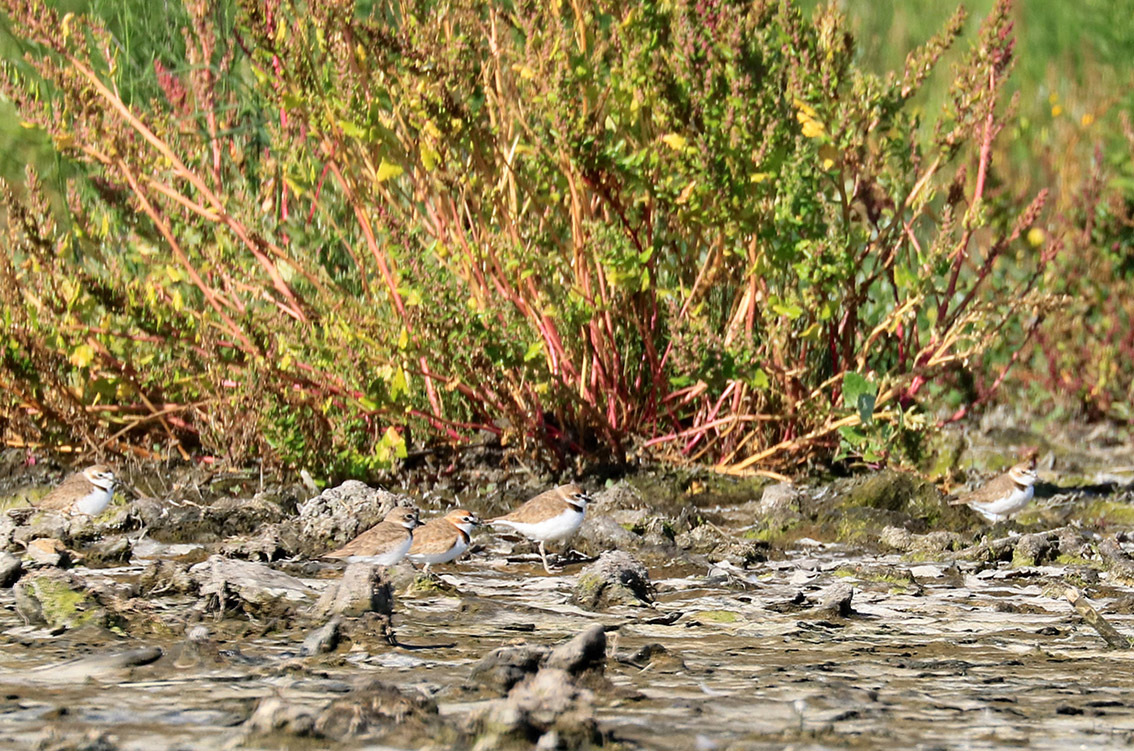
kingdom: Animalia
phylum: Chordata
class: Aves
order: Charadriiformes
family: Charadriidae
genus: Anarhynchus
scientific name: Anarhynchus
